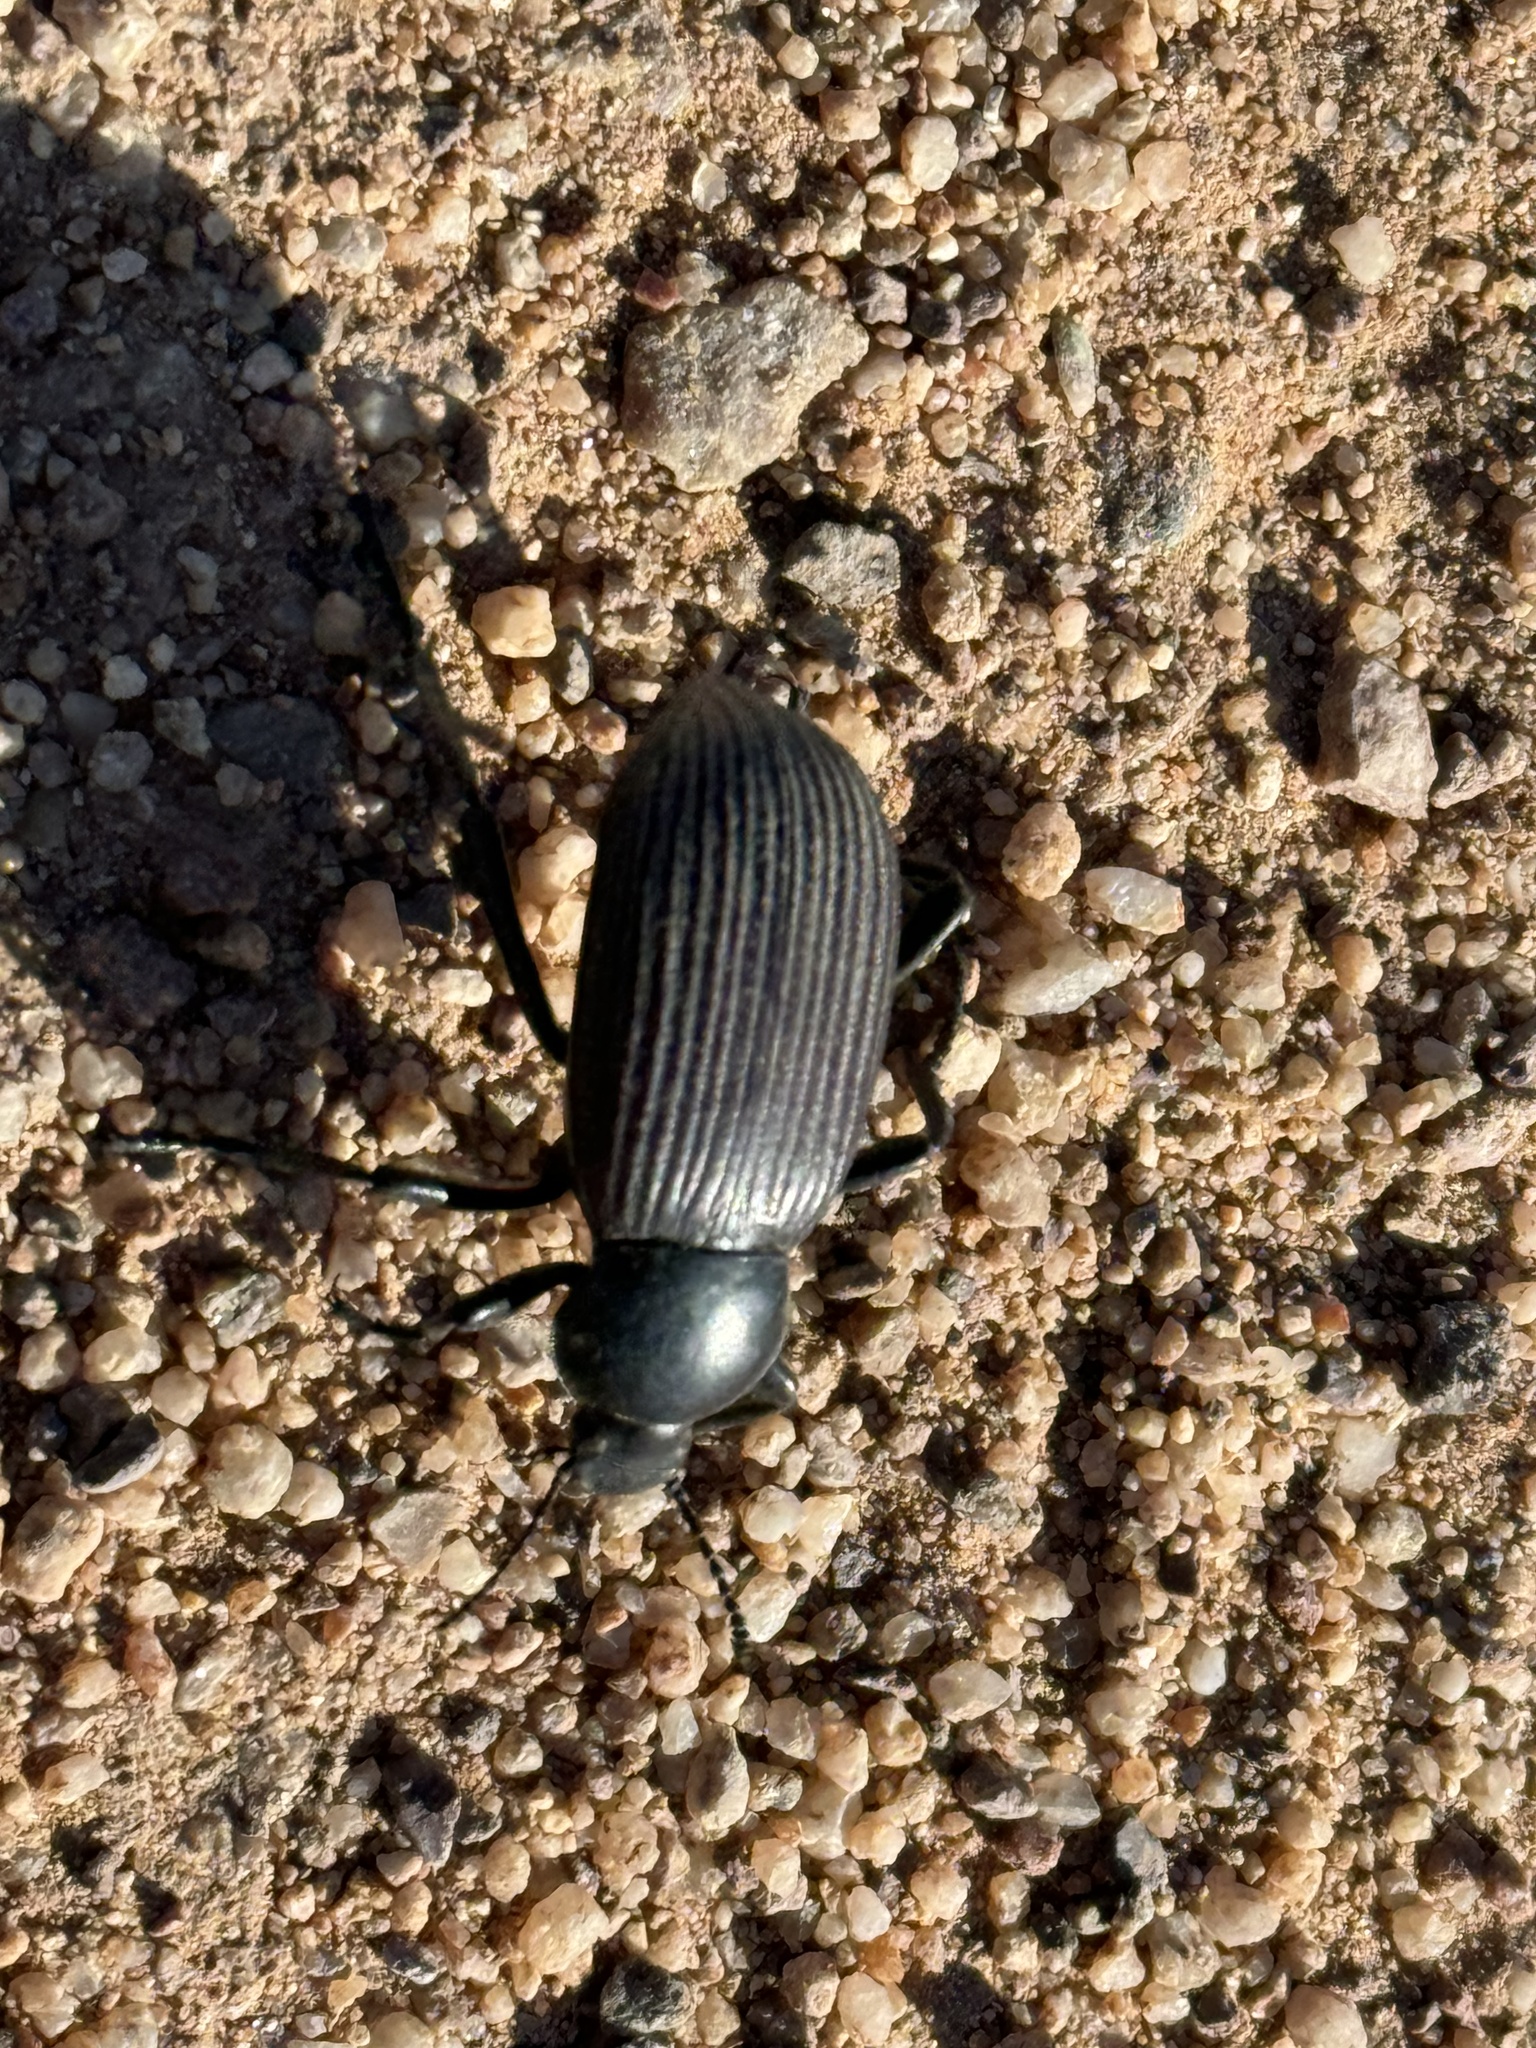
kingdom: Animalia
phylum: Arthropoda
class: Insecta
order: Coleoptera
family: Tenebrionidae
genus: Eleodes
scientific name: Eleodes obscura
